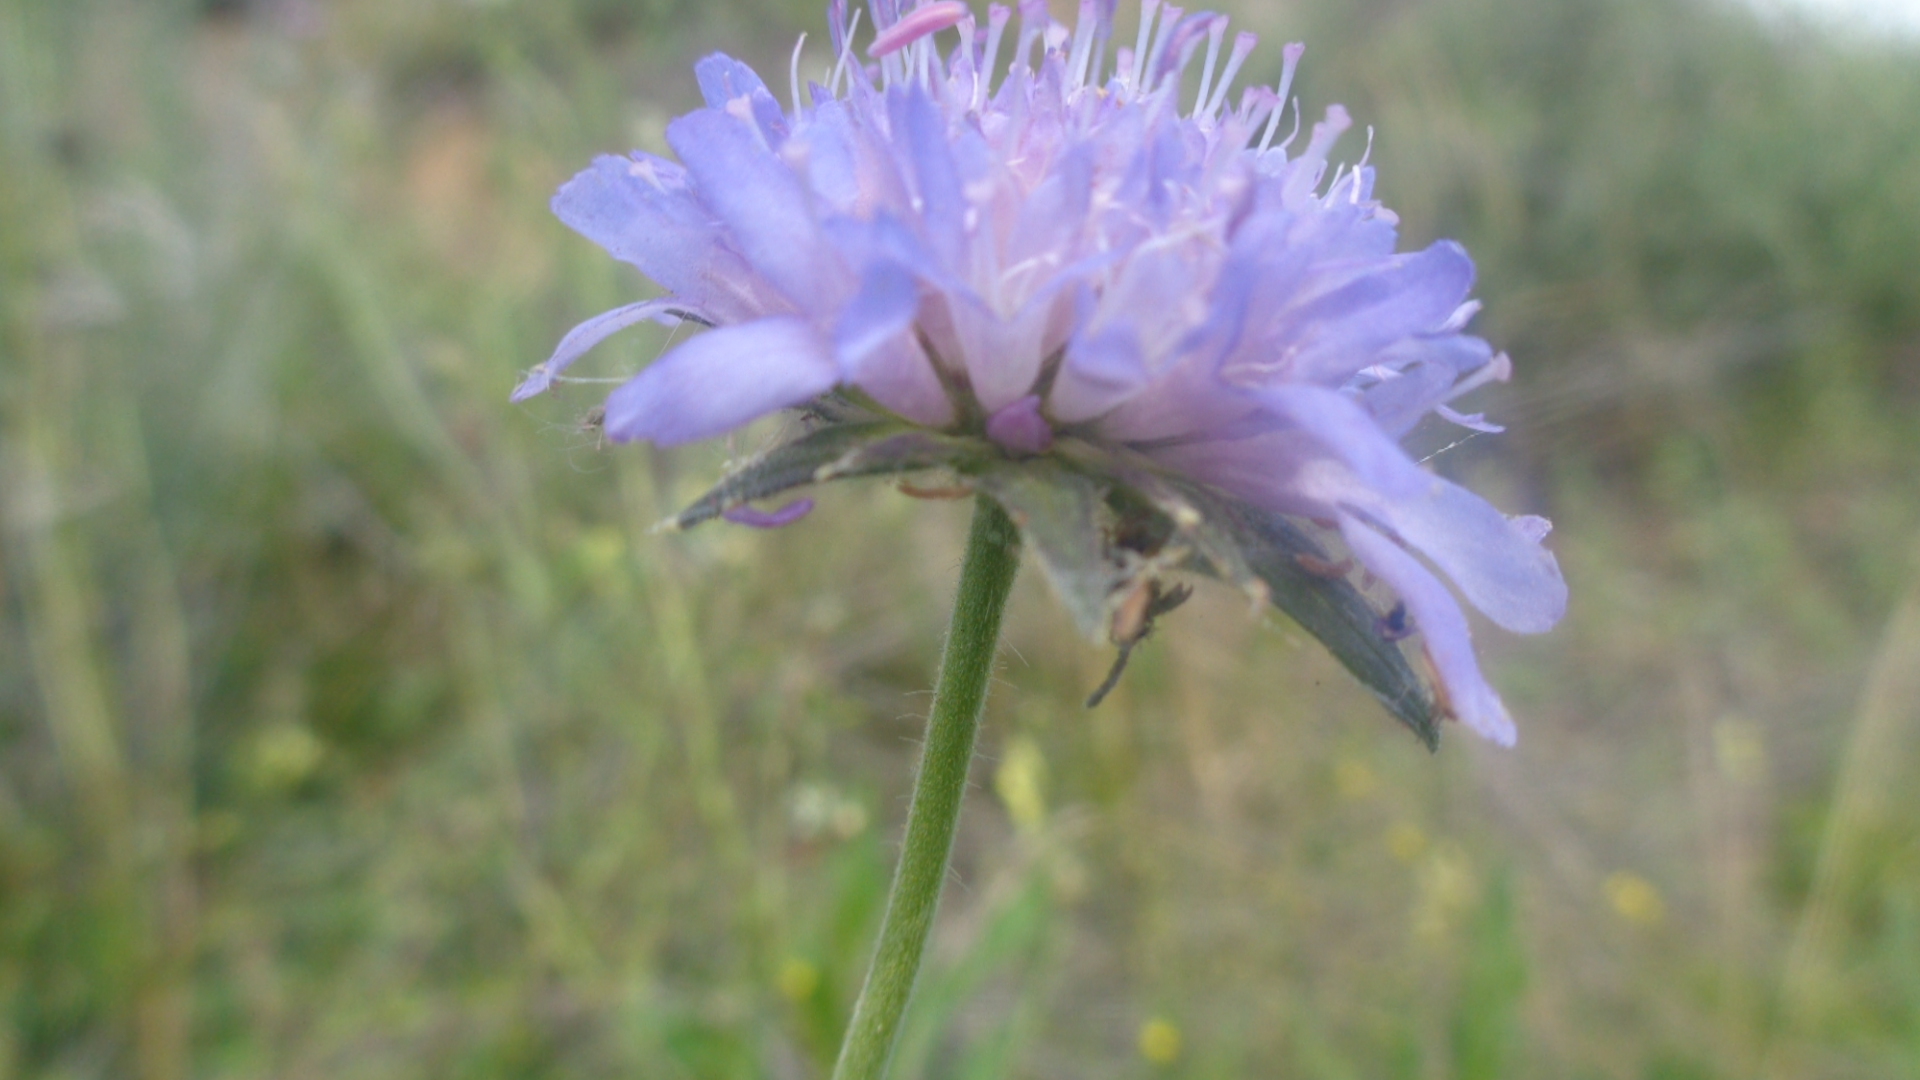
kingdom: Plantae
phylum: Tracheophyta
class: Magnoliopsida
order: Dipsacales
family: Caprifoliaceae
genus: Knautia
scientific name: Knautia arvensis
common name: Field scabiosa
